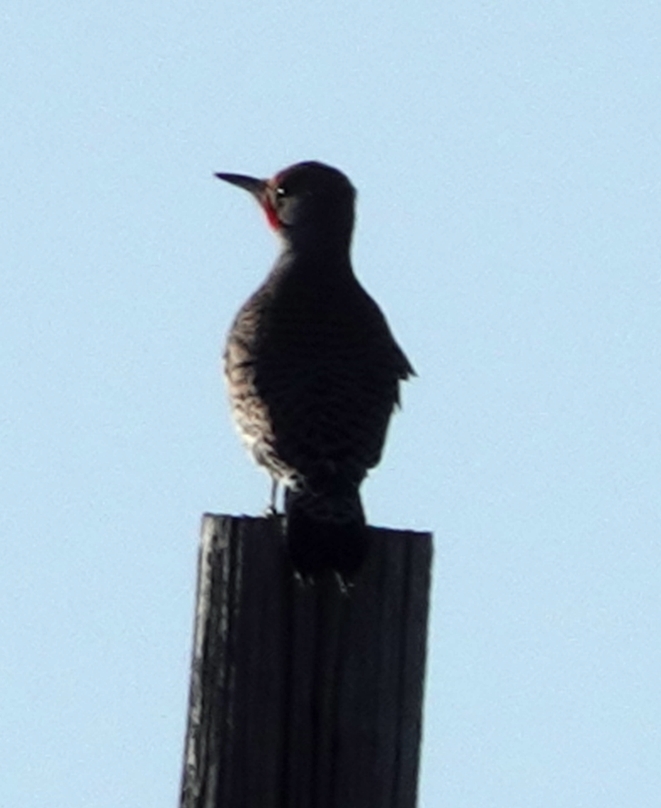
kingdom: Animalia
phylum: Chordata
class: Aves
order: Piciformes
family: Picidae
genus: Colaptes
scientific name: Colaptes auratus
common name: Northern flicker
